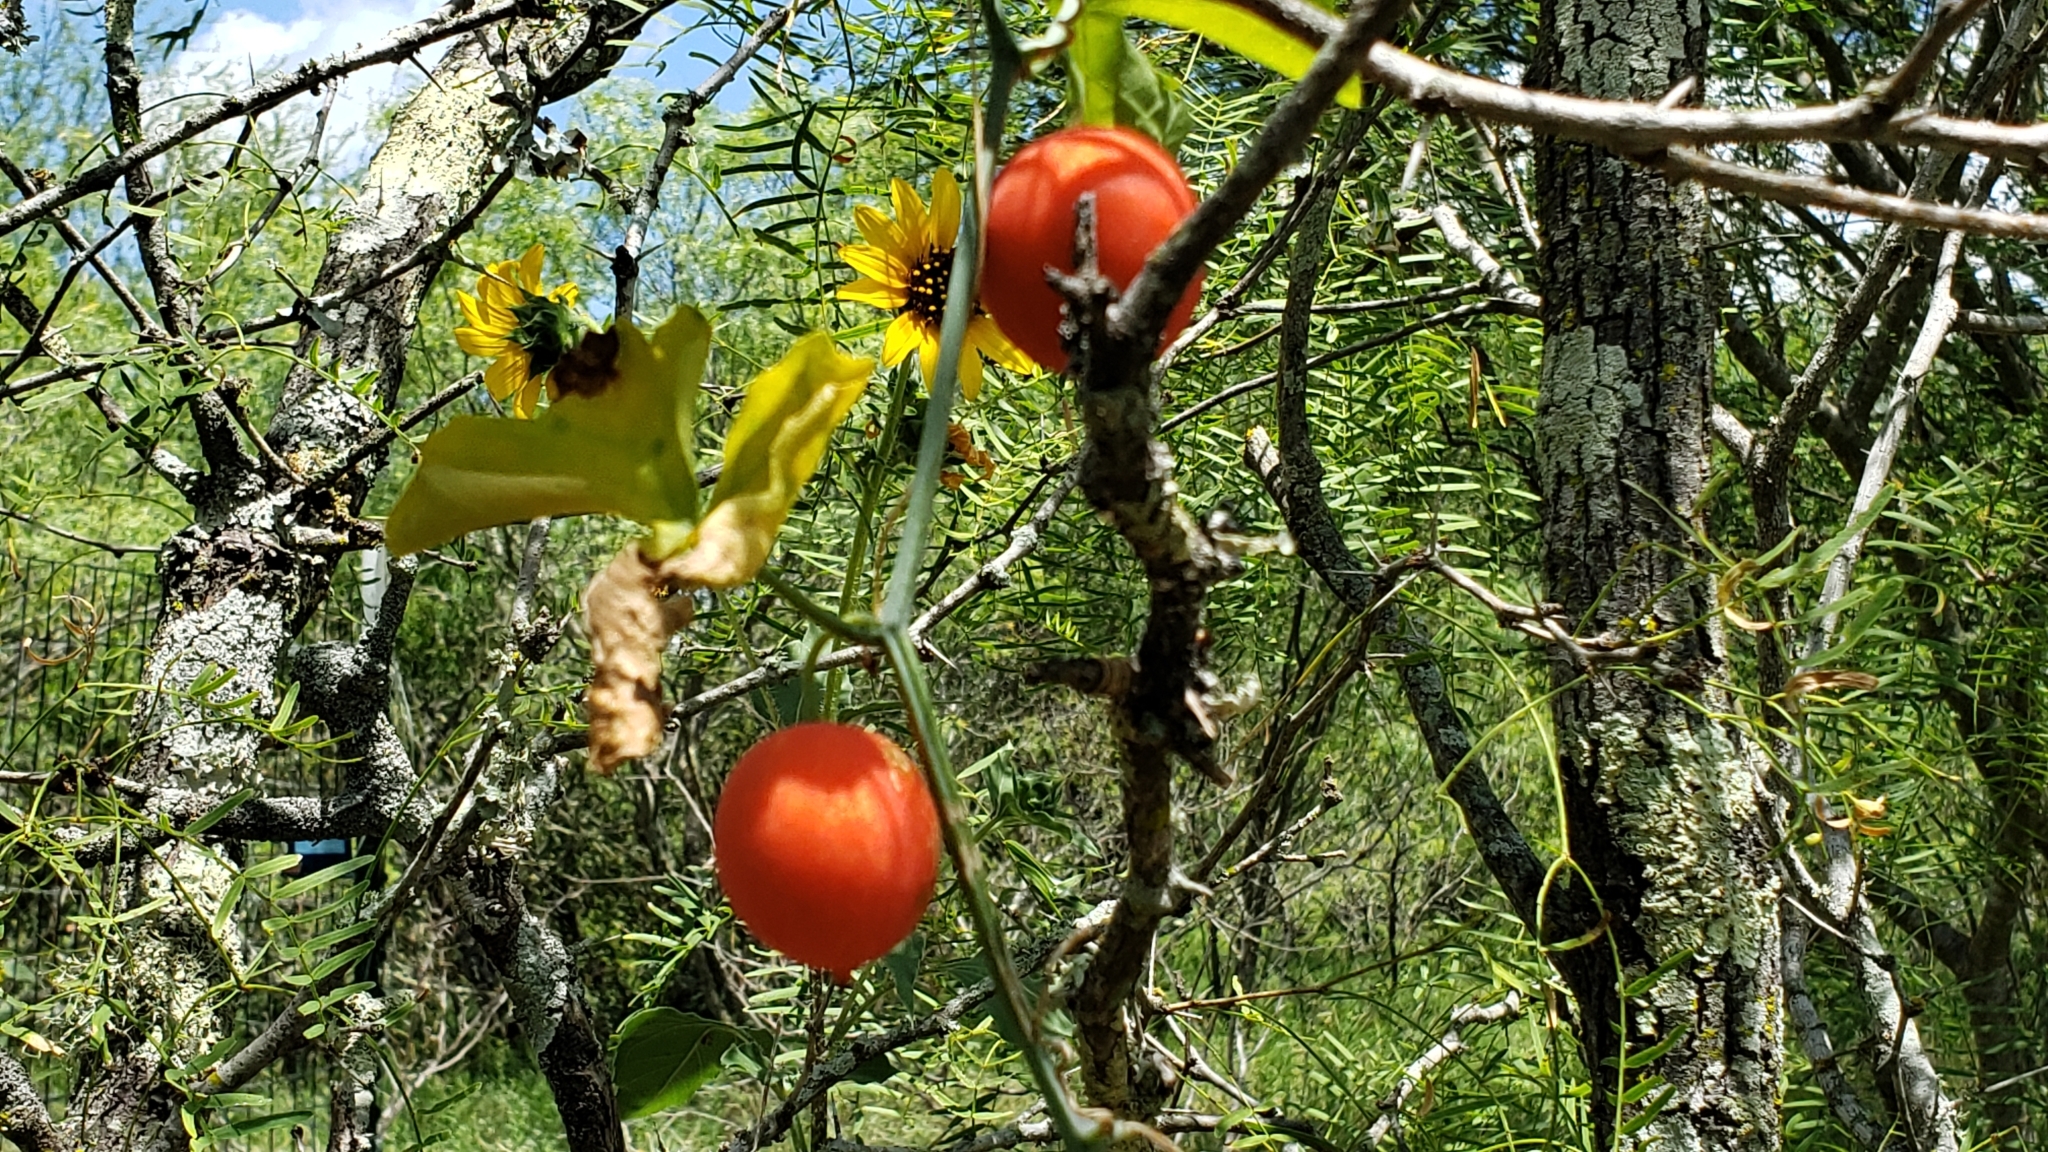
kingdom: Plantae
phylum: Tracheophyta
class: Magnoliopsida
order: Cucurbitales
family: Cucurbitaceae
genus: Ibervillea
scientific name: Ibervillea lindheimeri
